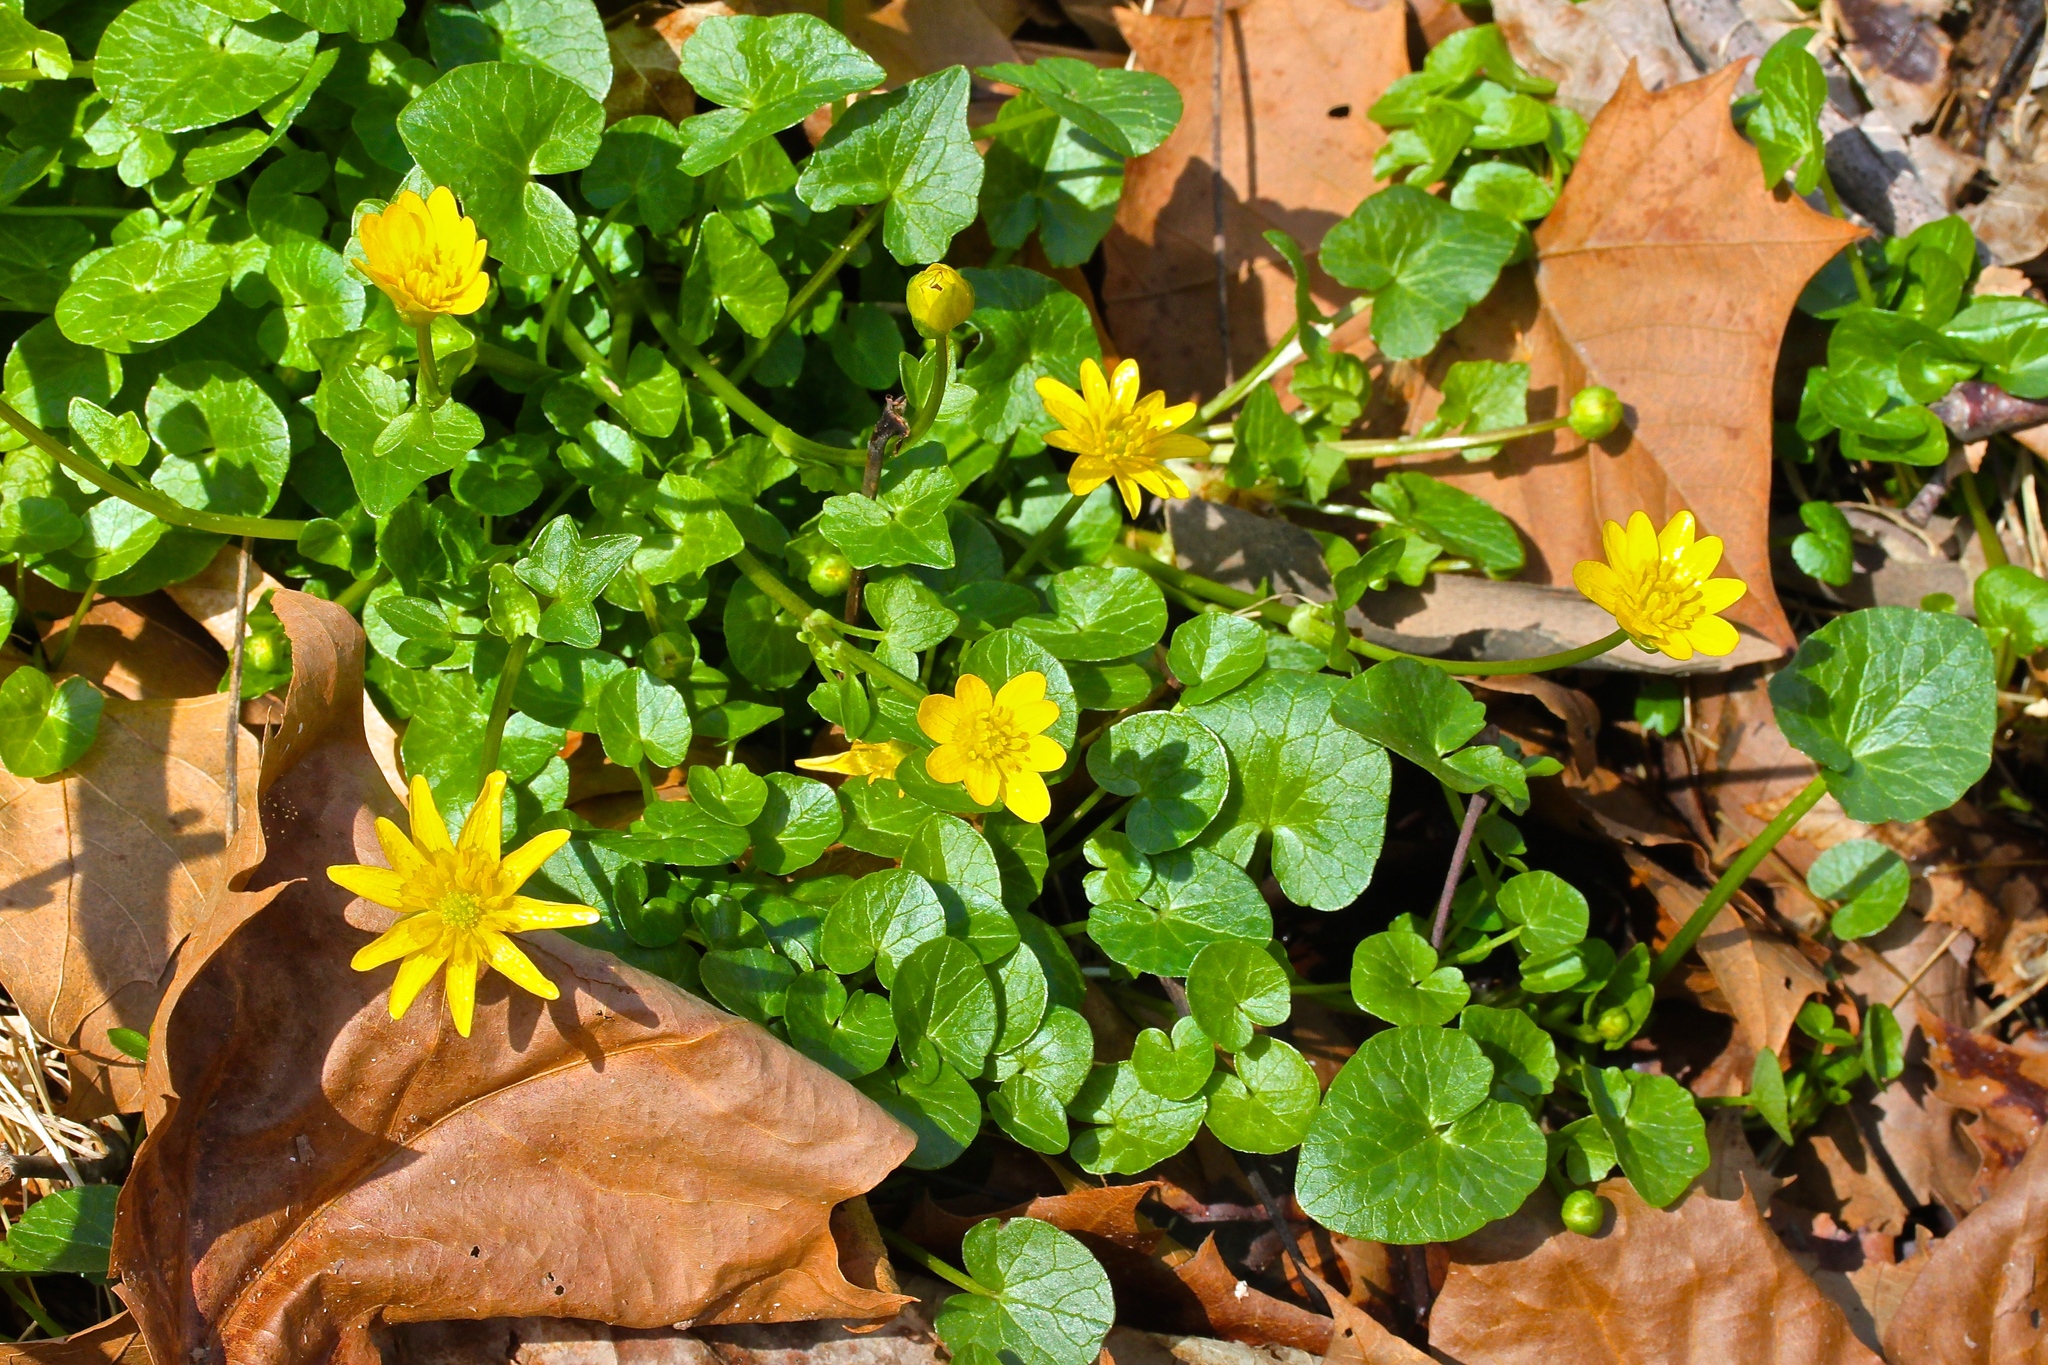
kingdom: Plantae
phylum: Tracheophyta
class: Magnoliopsida
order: Ranunculales
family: Ranunculaceae
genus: Ficaria
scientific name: Ficaria verna
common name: Lesser celandine
